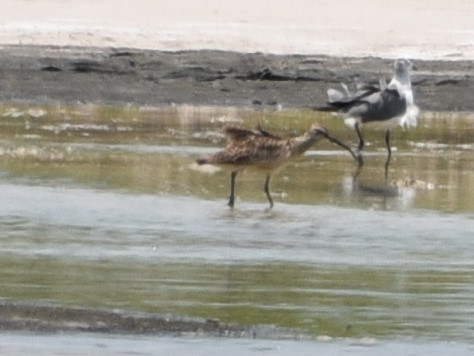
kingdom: Animalia
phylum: Chordata
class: Aves
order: Charadriiformes
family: Scolopacidae
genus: Numenius
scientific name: Numenius phaeopus
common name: Whimbrel
